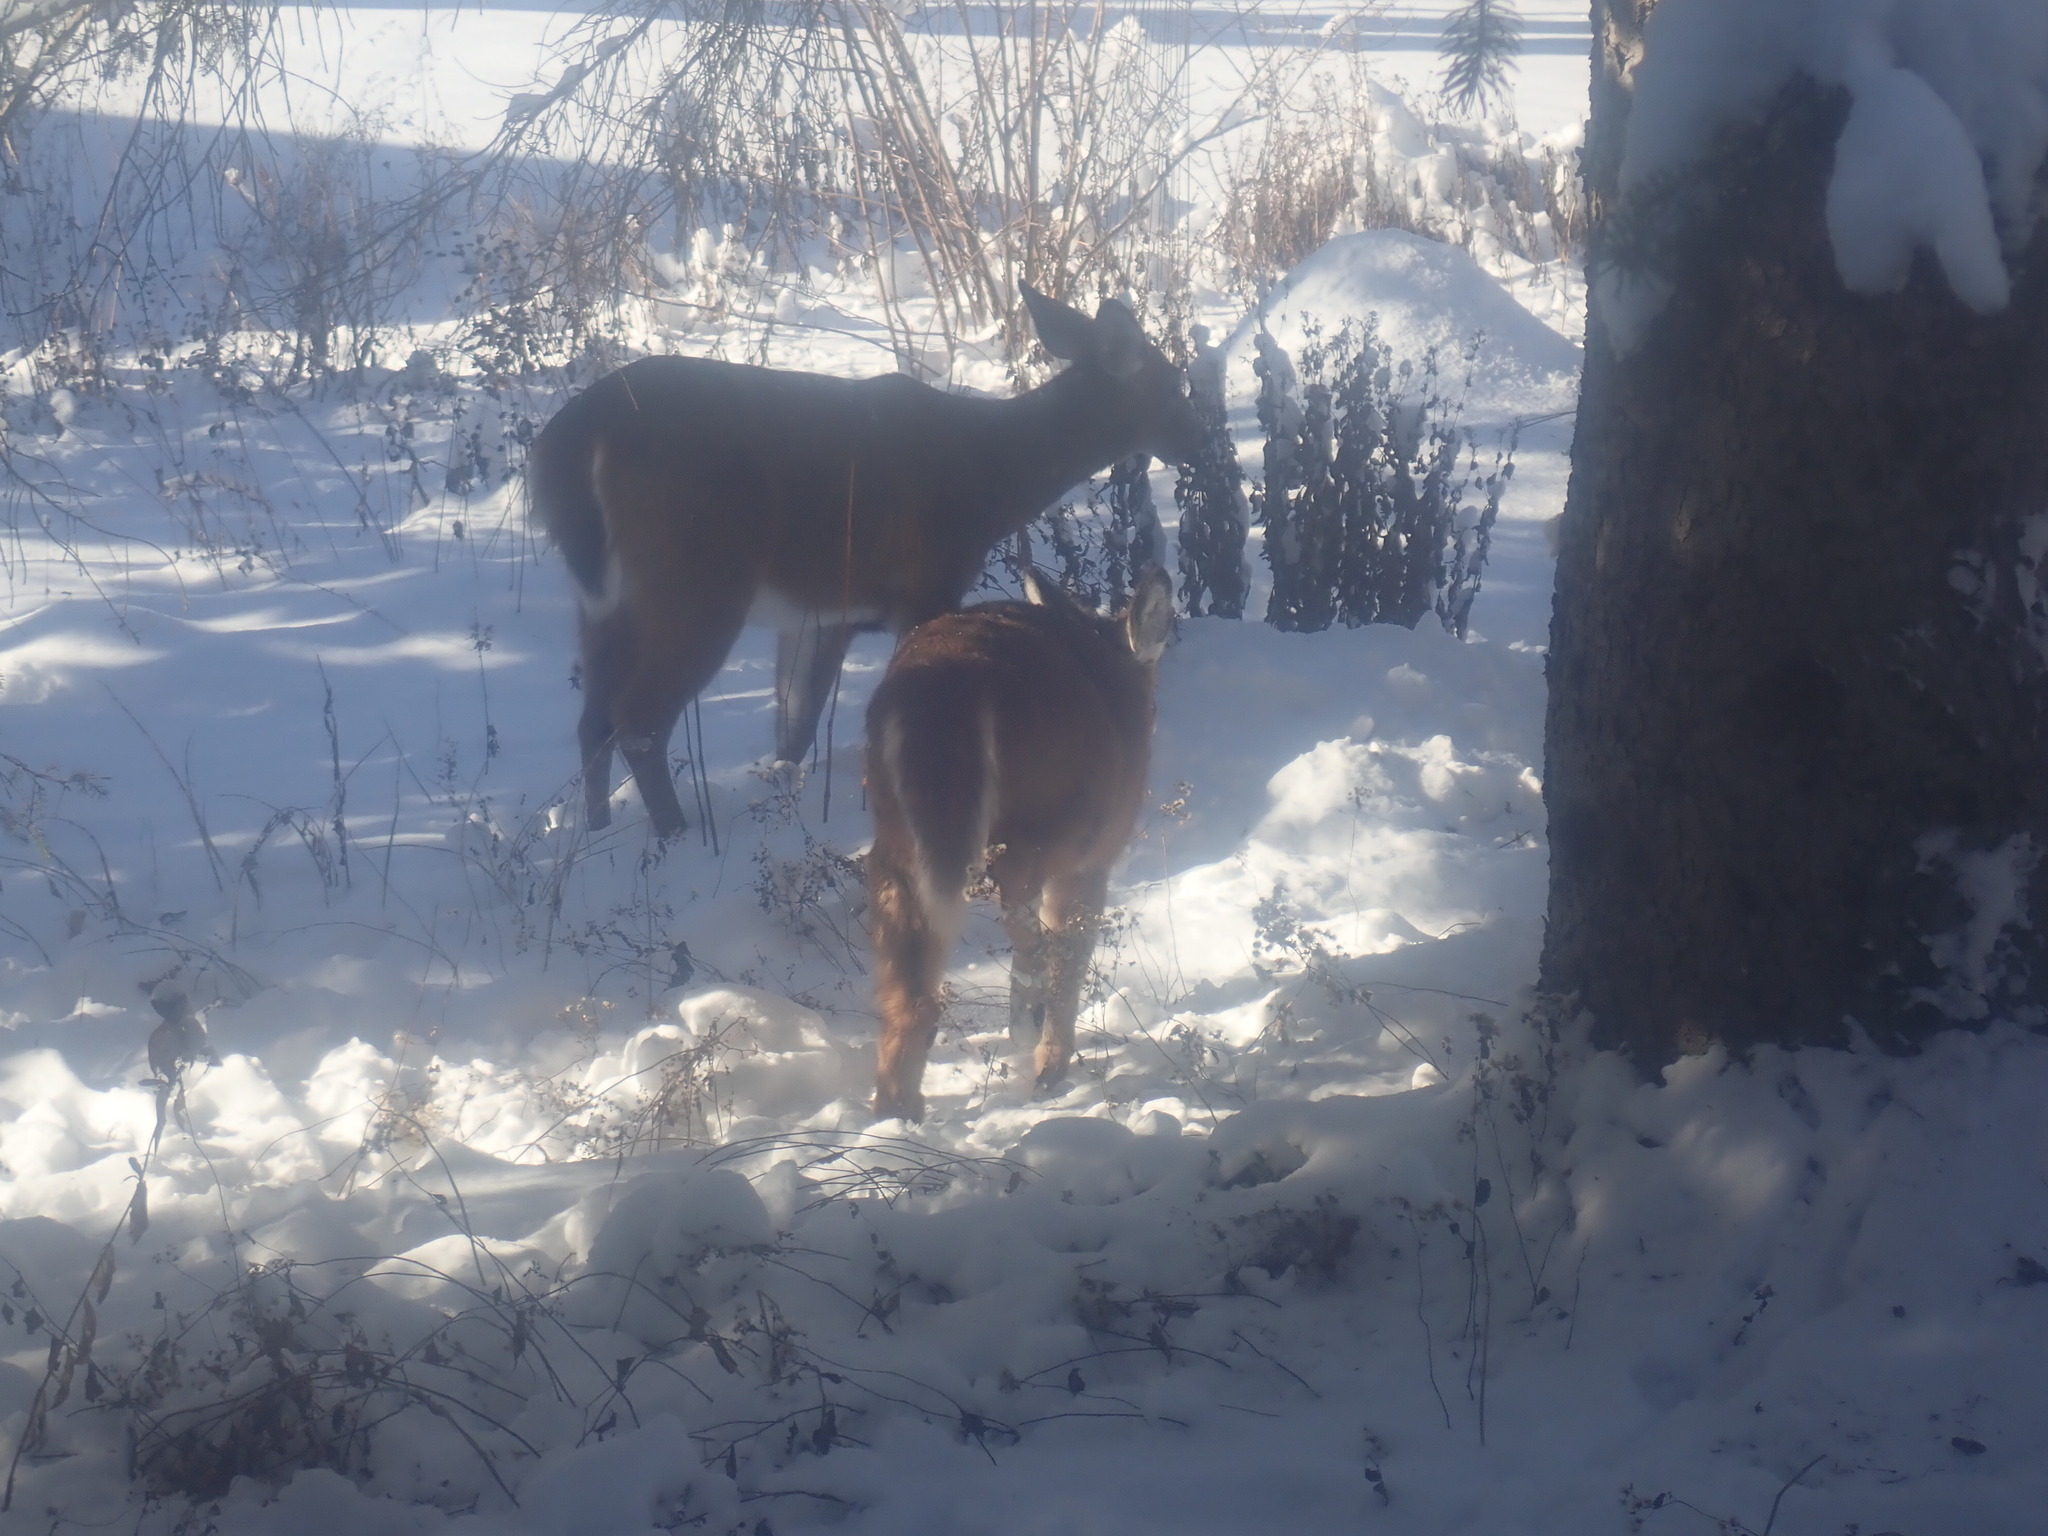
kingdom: Animalia
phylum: Chordata
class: Mammalia
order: Artiodactyla
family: Cervidae
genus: Odocoileus
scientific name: Odocoileus virginianus
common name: White-tailed deer
